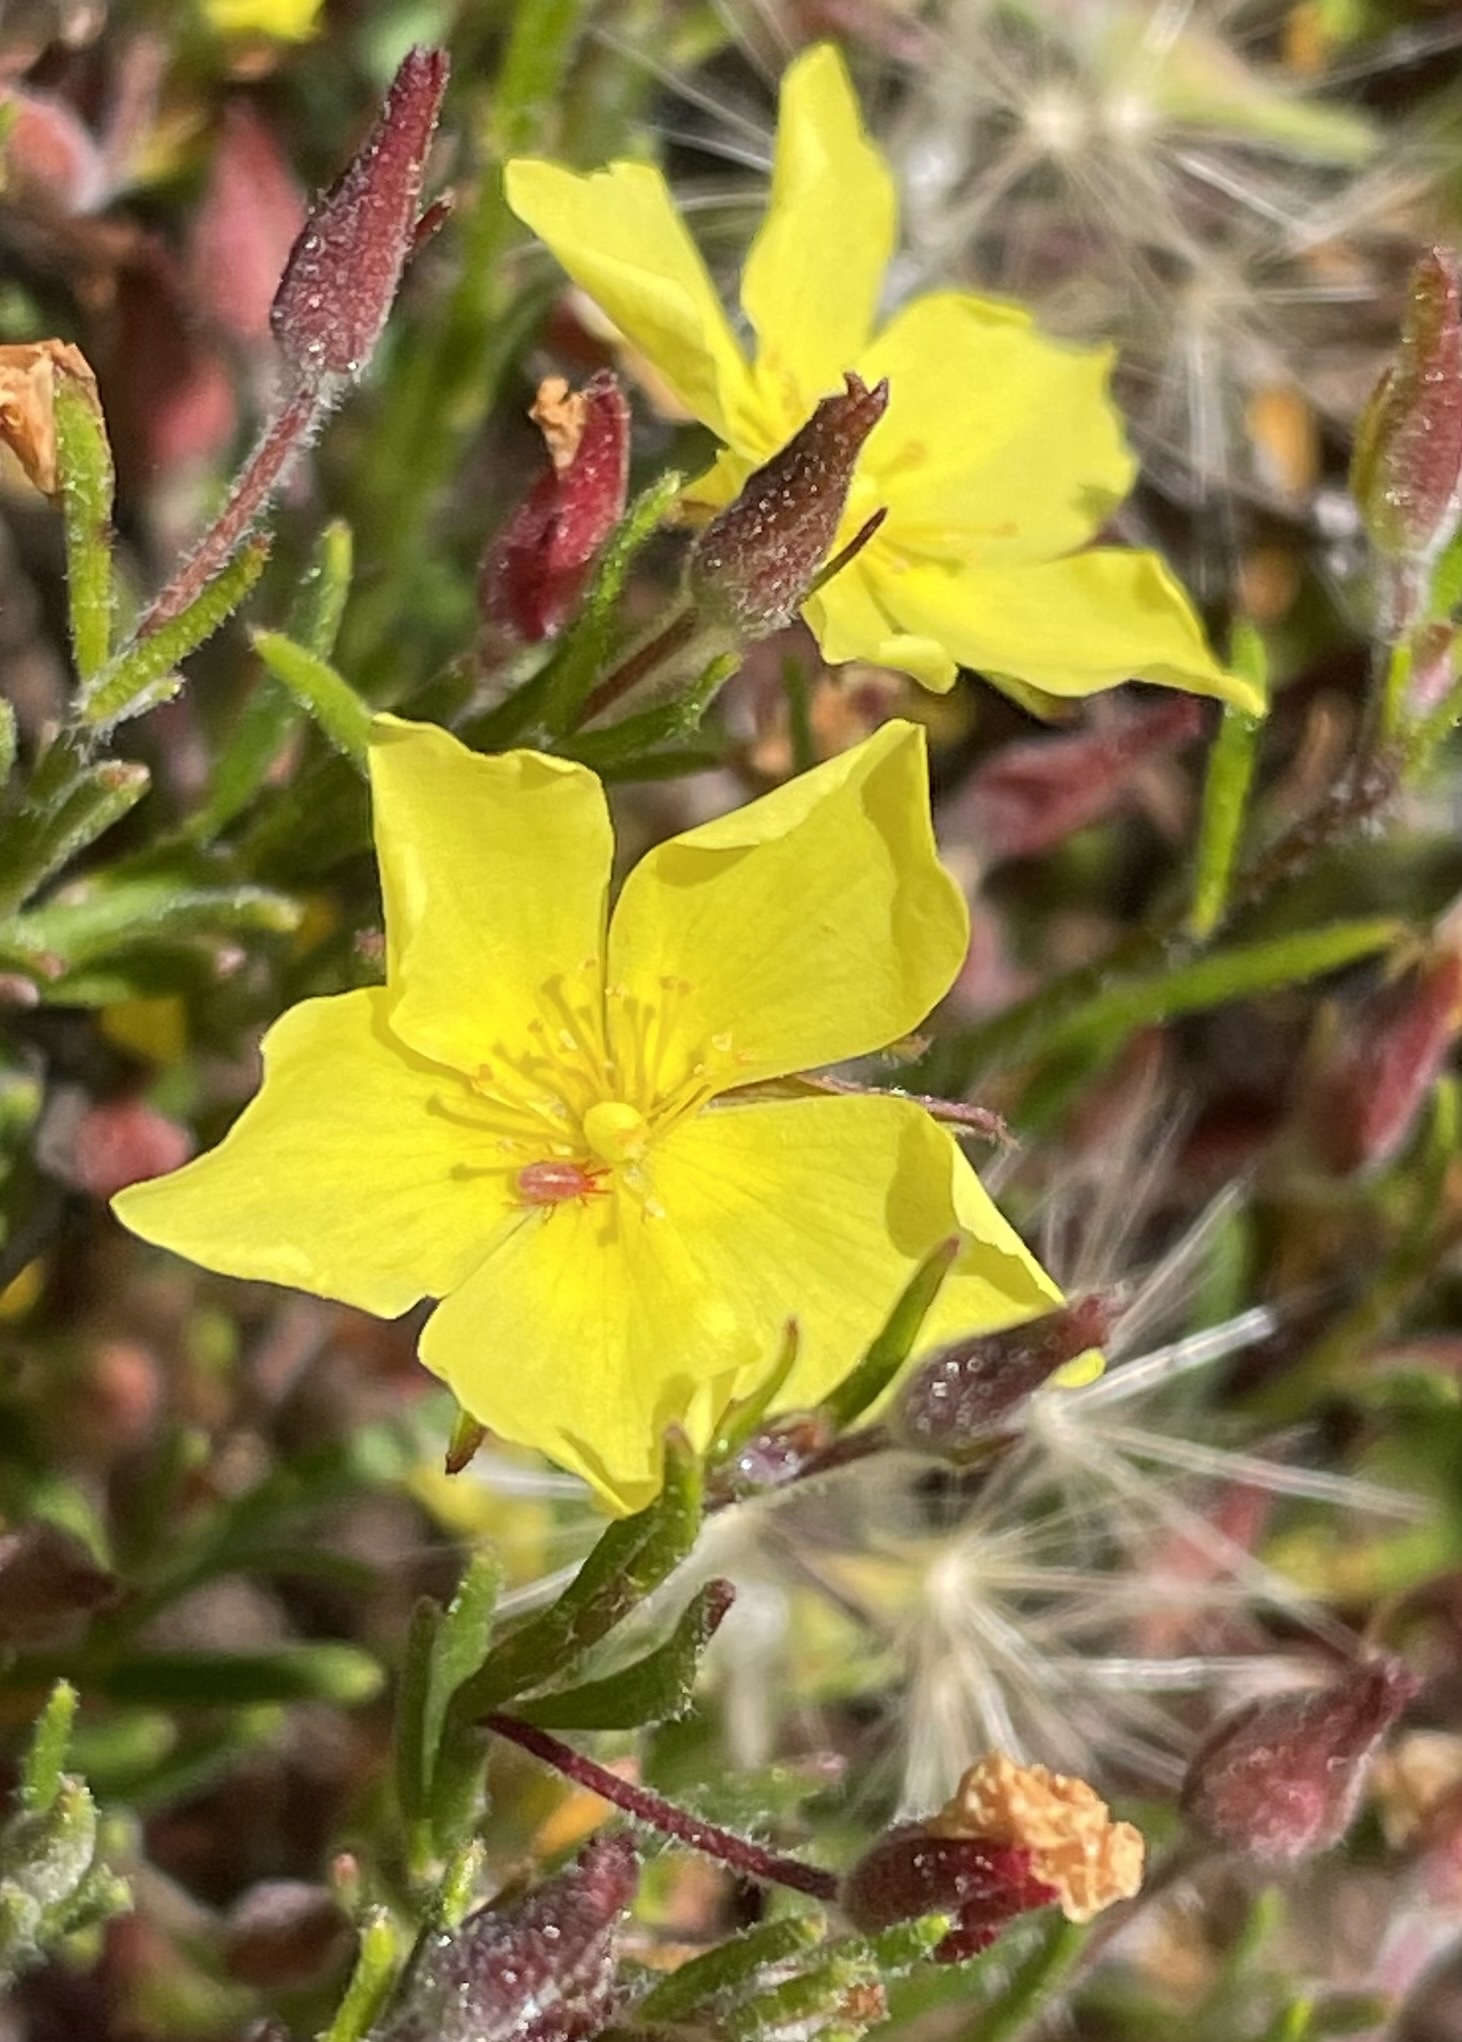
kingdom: Plantae
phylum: Tracheophyta
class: Magnoliopsida
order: Malvales
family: Cistaceae
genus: Crocanthemum
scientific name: Crocanthemum scoparium
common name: Broom-rose
